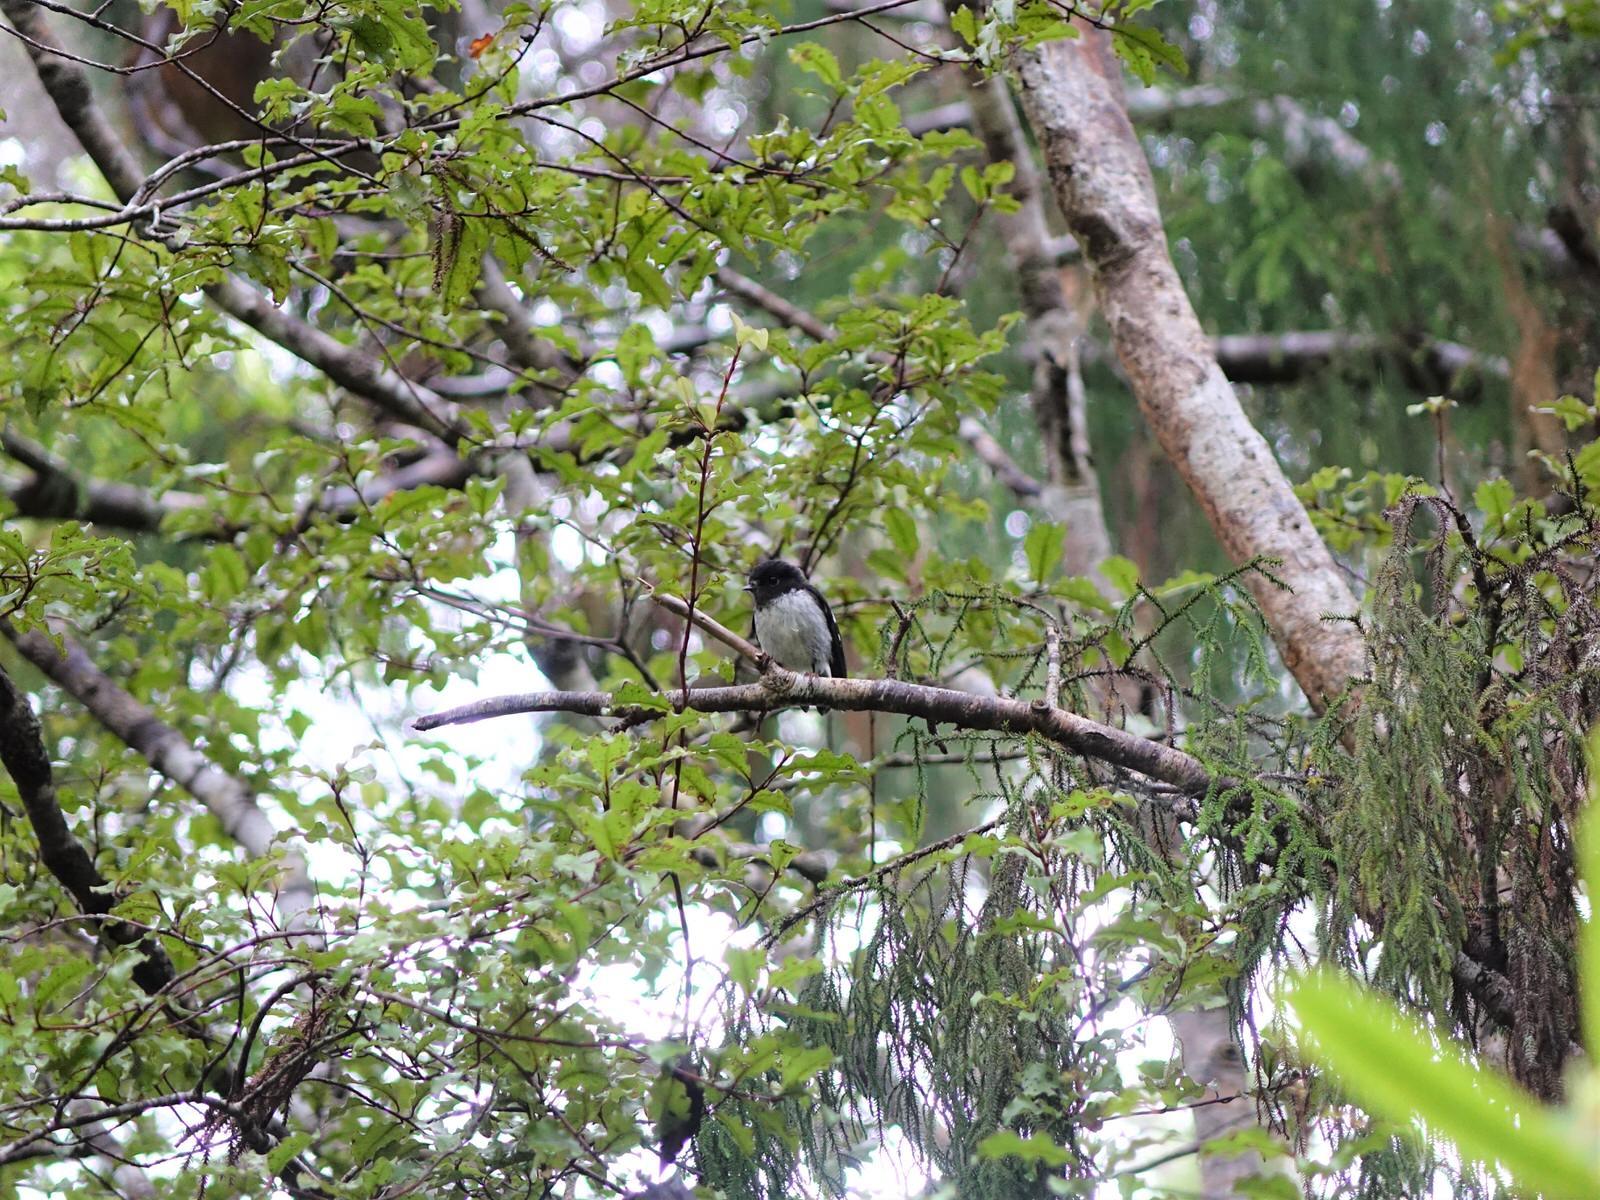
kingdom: Animalia
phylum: Chordata
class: Aves
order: Passeriformes
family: Petroicidae
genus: Petroica
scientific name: Petroica macrocephala
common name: Tomtit
